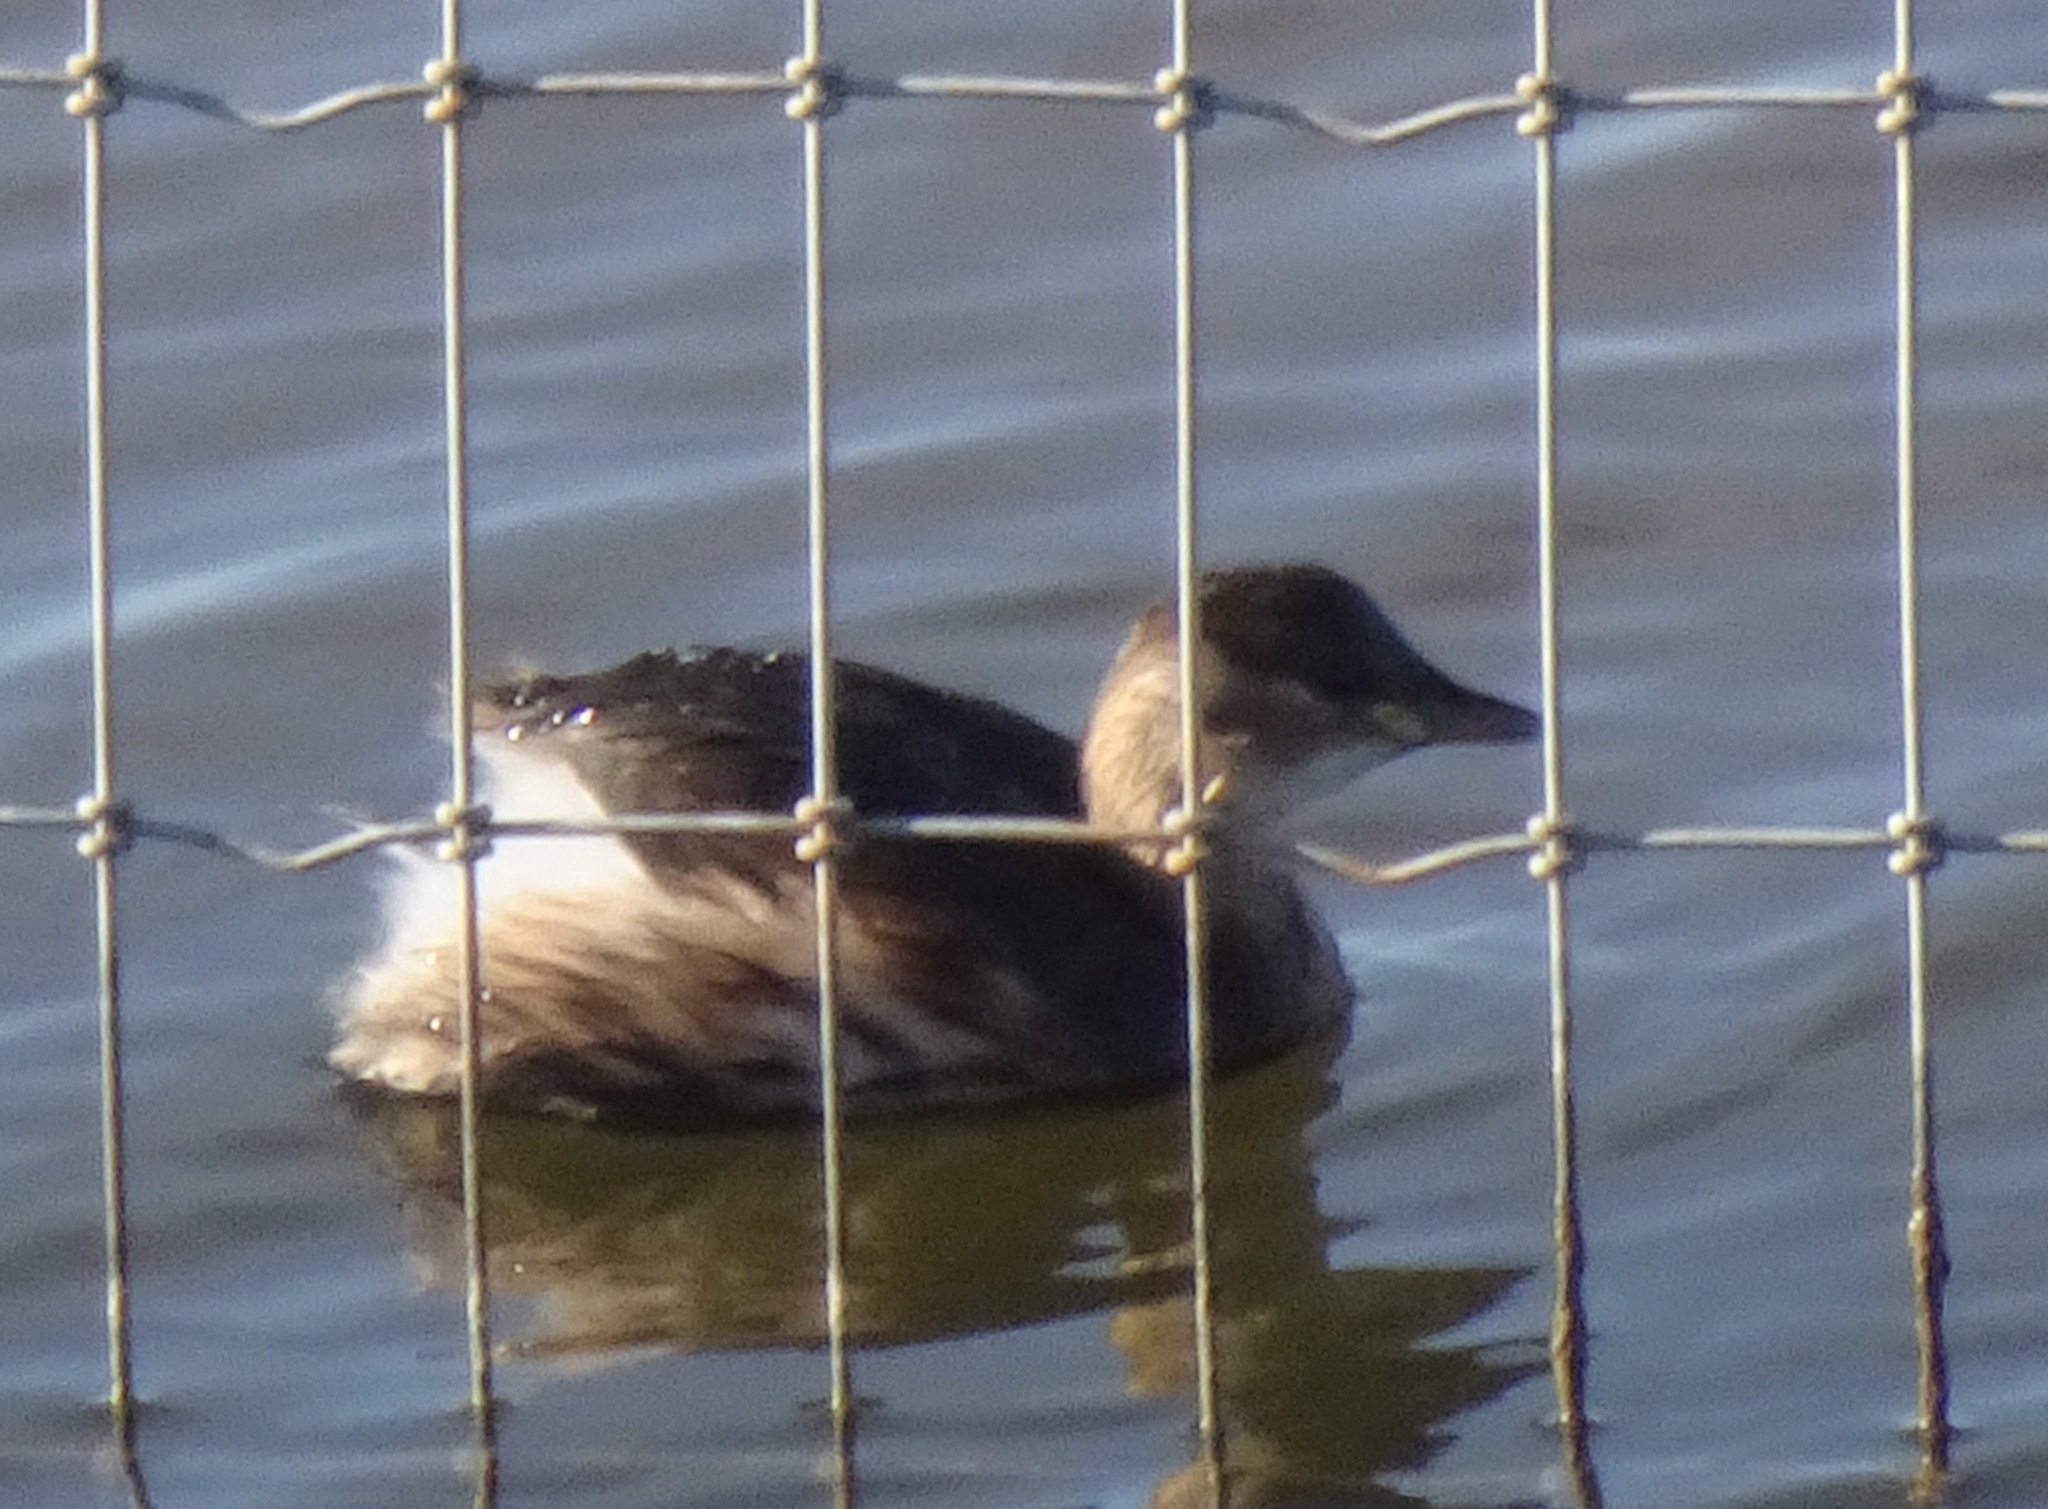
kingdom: Animalia
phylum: Chordata
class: Aves
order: Podicipediformes
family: Podicipedidae
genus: Tachybaptus
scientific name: Tachybaptus ruficollis
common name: Little grebe
